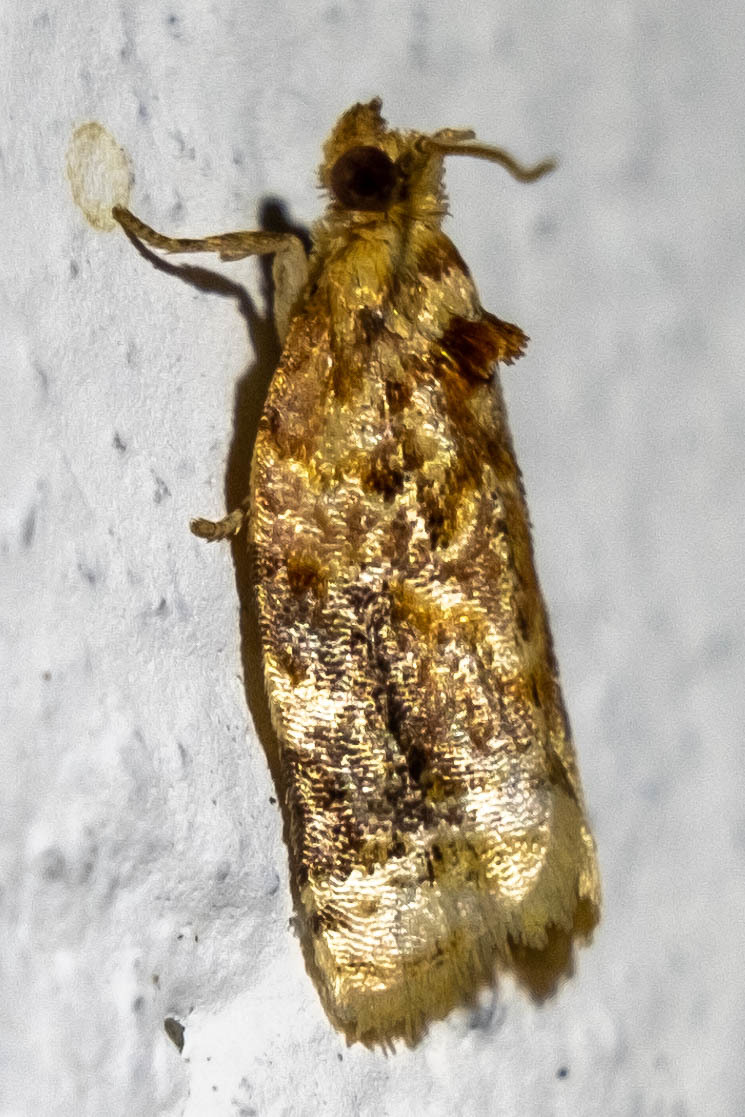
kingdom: Animalia
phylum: Arthropoda
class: Insecta
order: Lepidoptera
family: Tortricidae
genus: Argyrotaenia
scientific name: Argyrotaenia velutinana
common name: Red-banded leafroller moth
